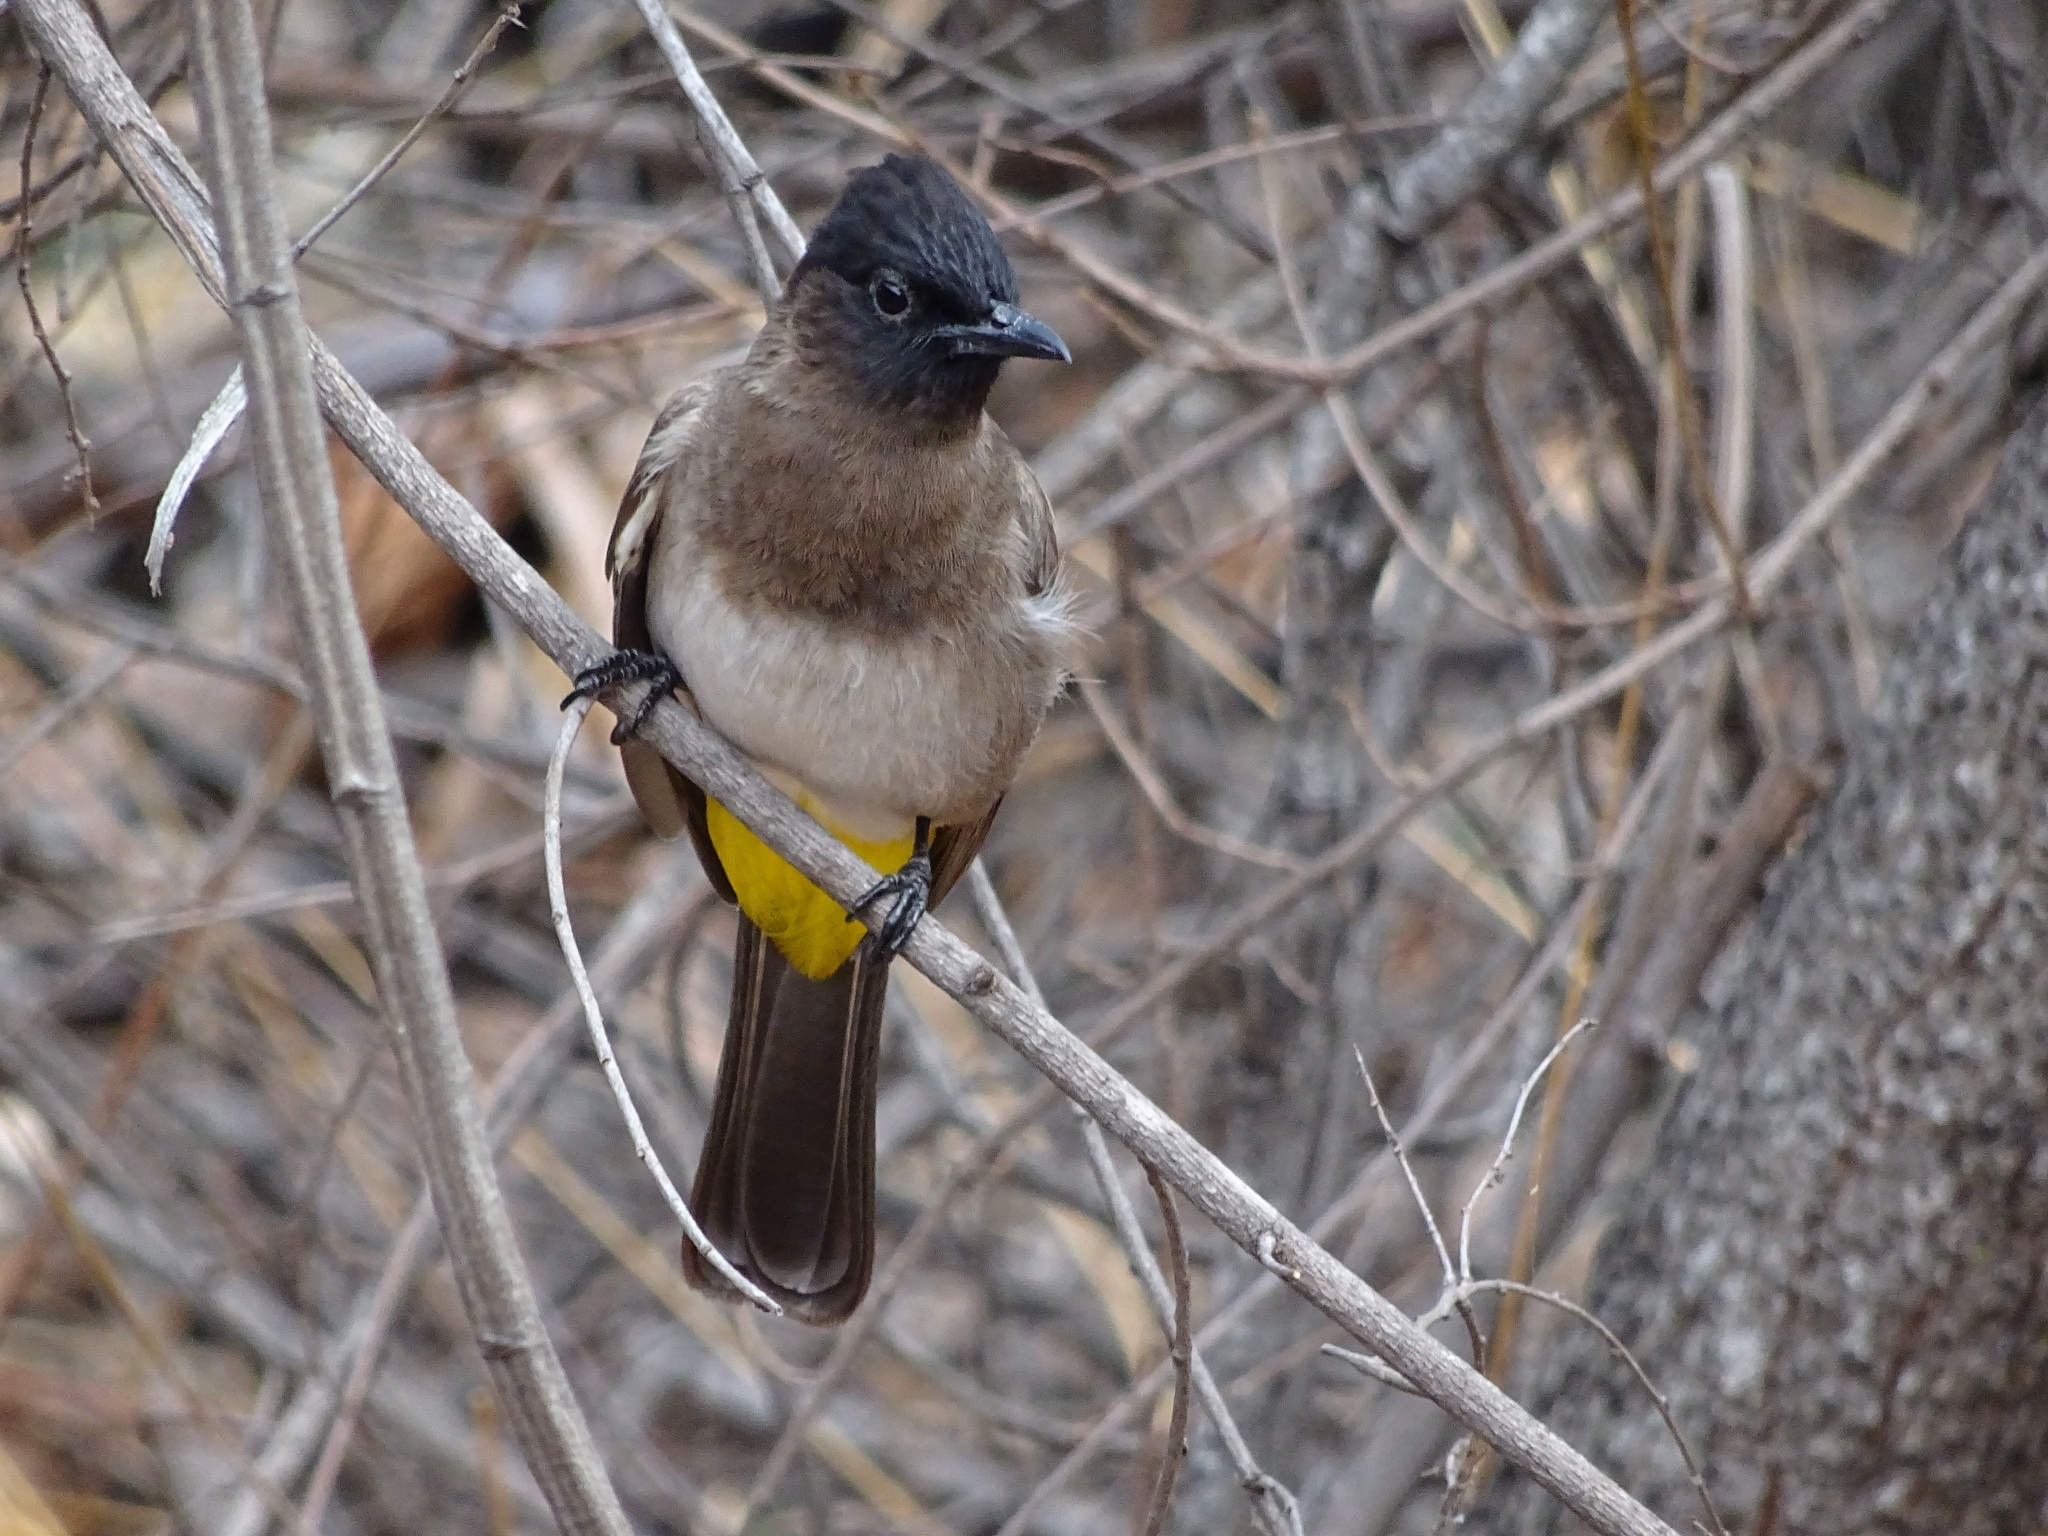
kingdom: Animalia
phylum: Chordata
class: Aves
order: Passeriformes
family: Pycnonotidae
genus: Pycnonotus
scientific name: Pycnonotus barbatus
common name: Common bulbul
